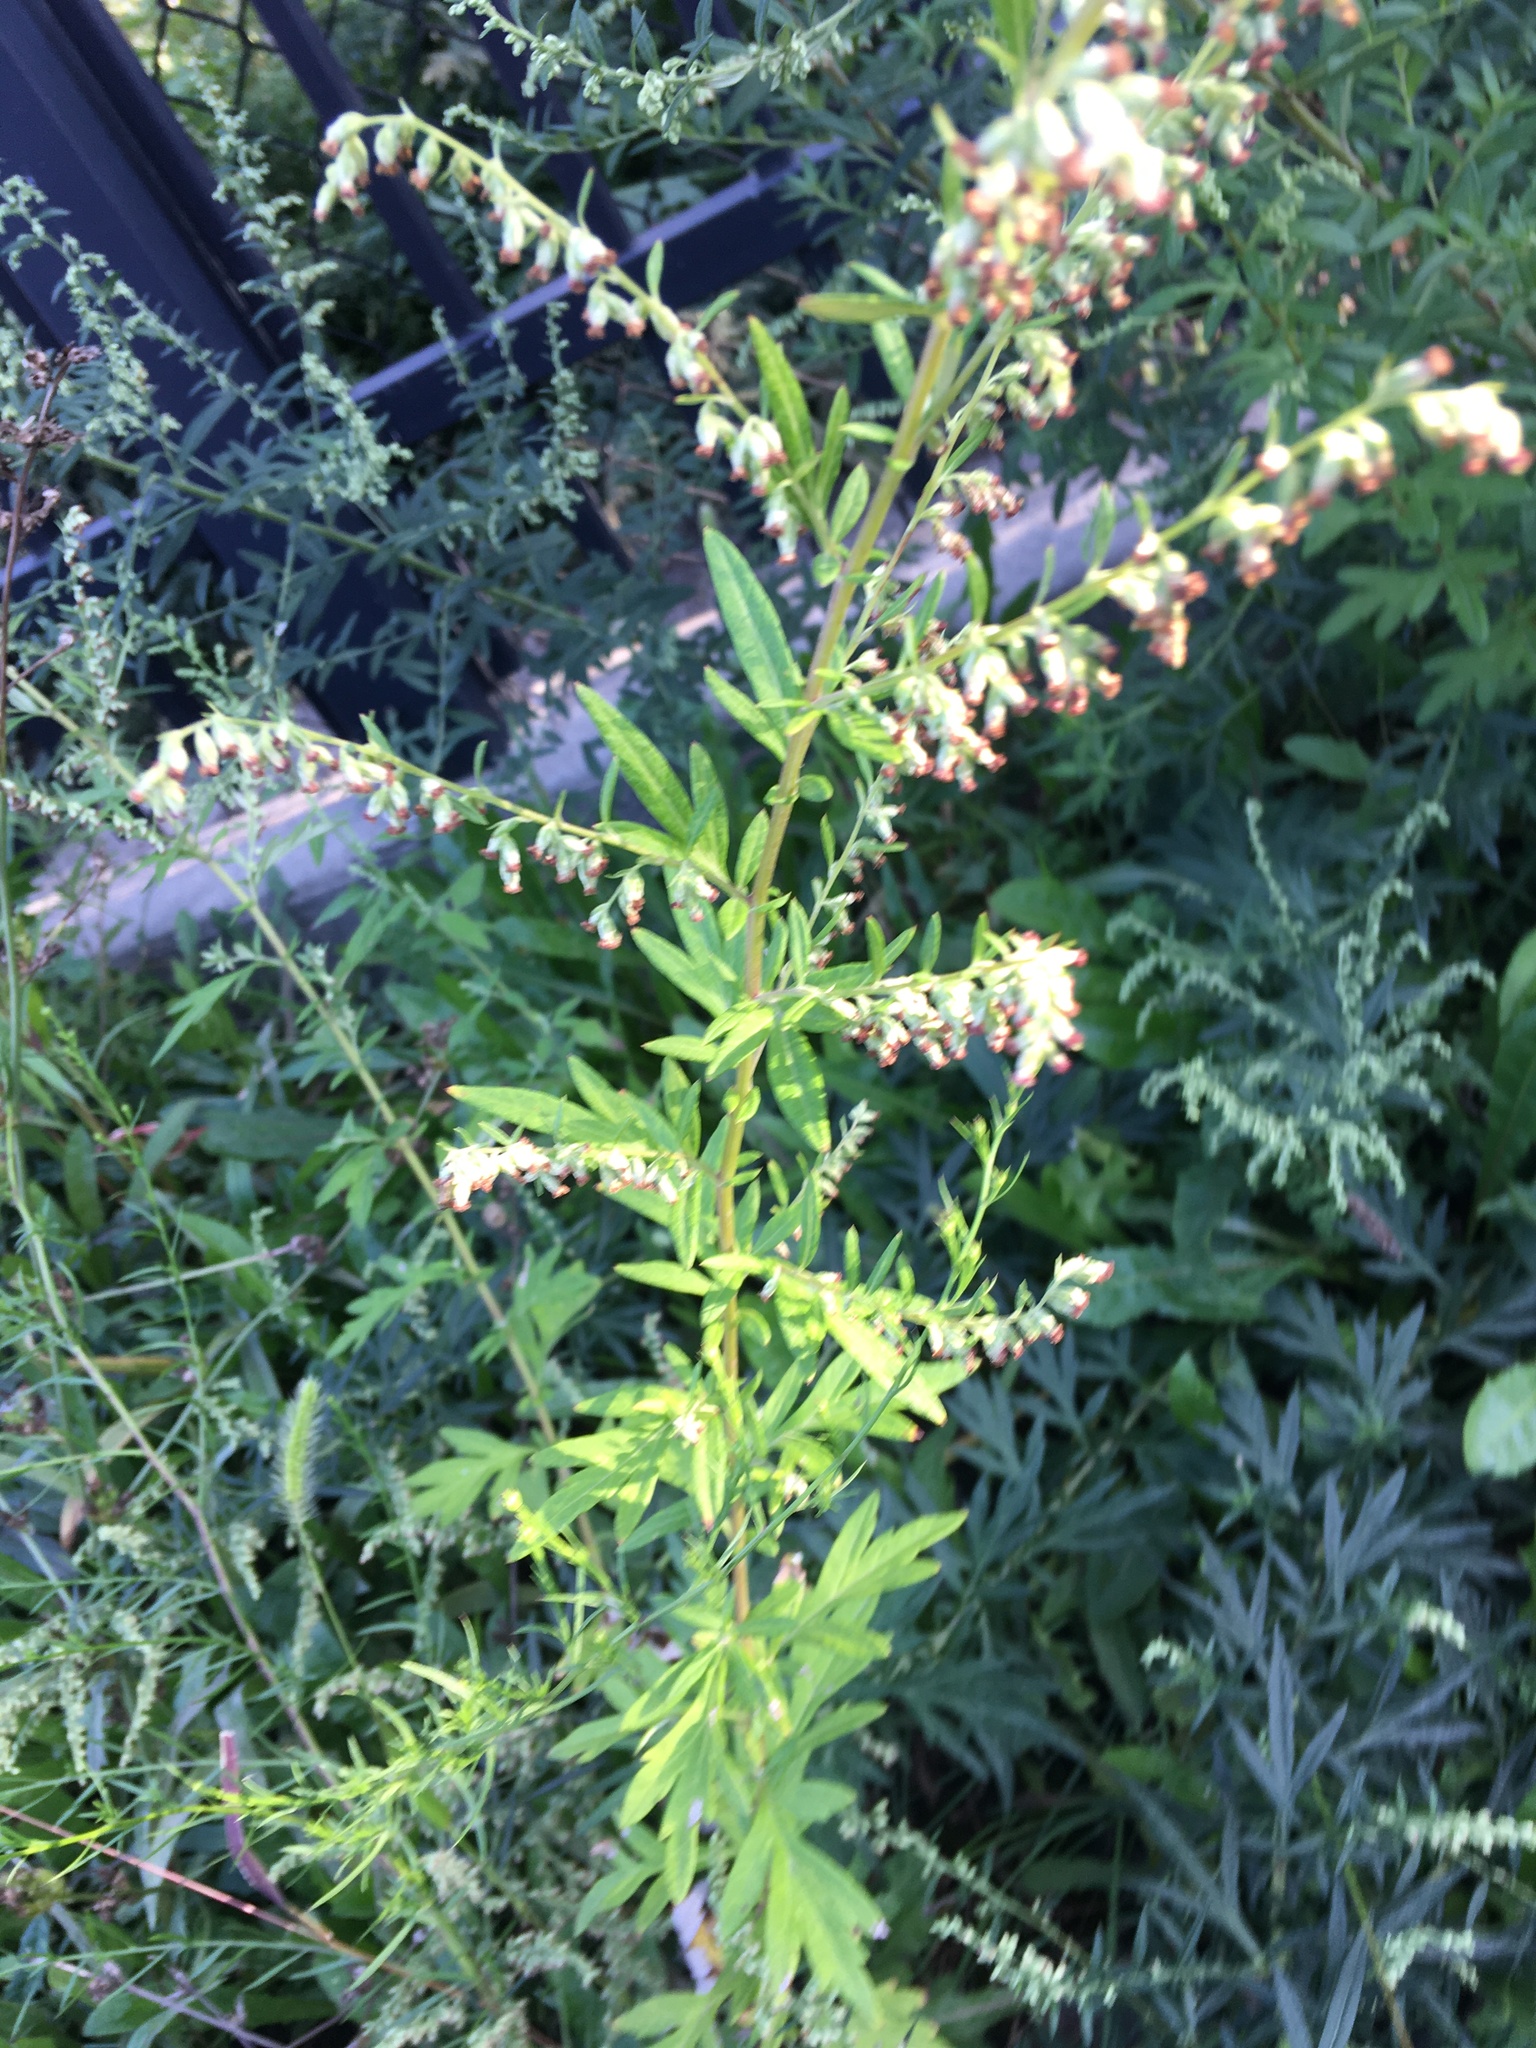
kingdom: Plantae
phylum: Tracheophyta
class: Magnoliopsida
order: Asterales
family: Asteraceae
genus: Artemisia
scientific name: Artemisia vulgaris
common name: Mugwort
